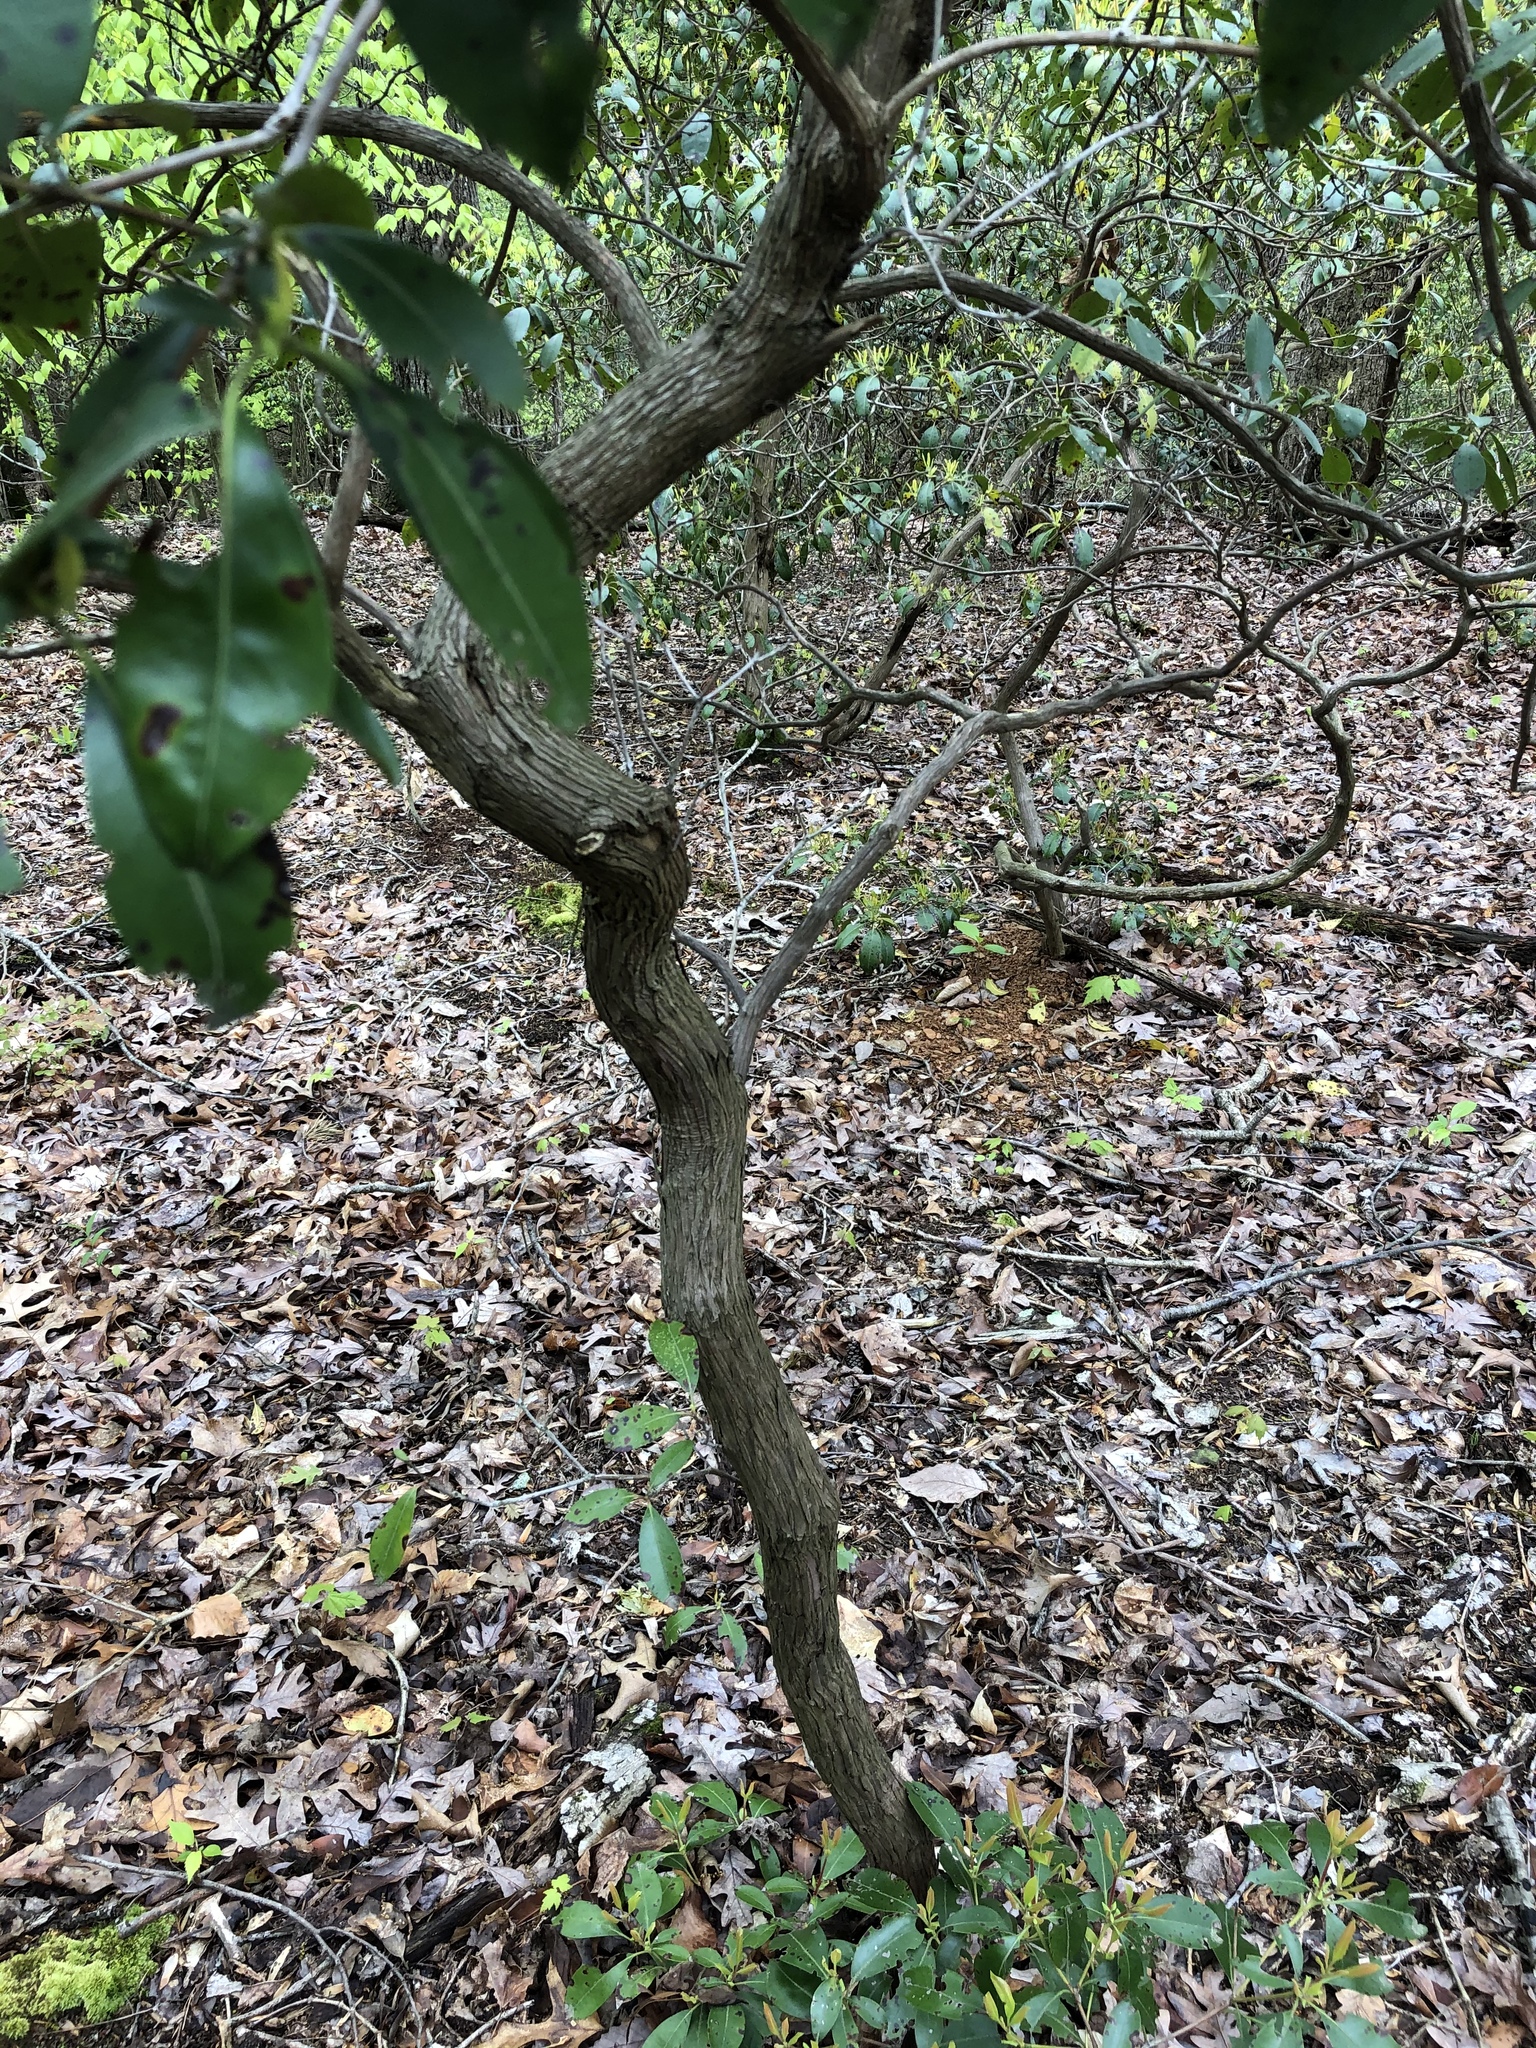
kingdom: Plantae
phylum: Tracheophyta
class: Magnoliopsida
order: Ericales
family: Ericaceae
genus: Kalmia
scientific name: Kalmia latifolia
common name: Mountain-laurel
